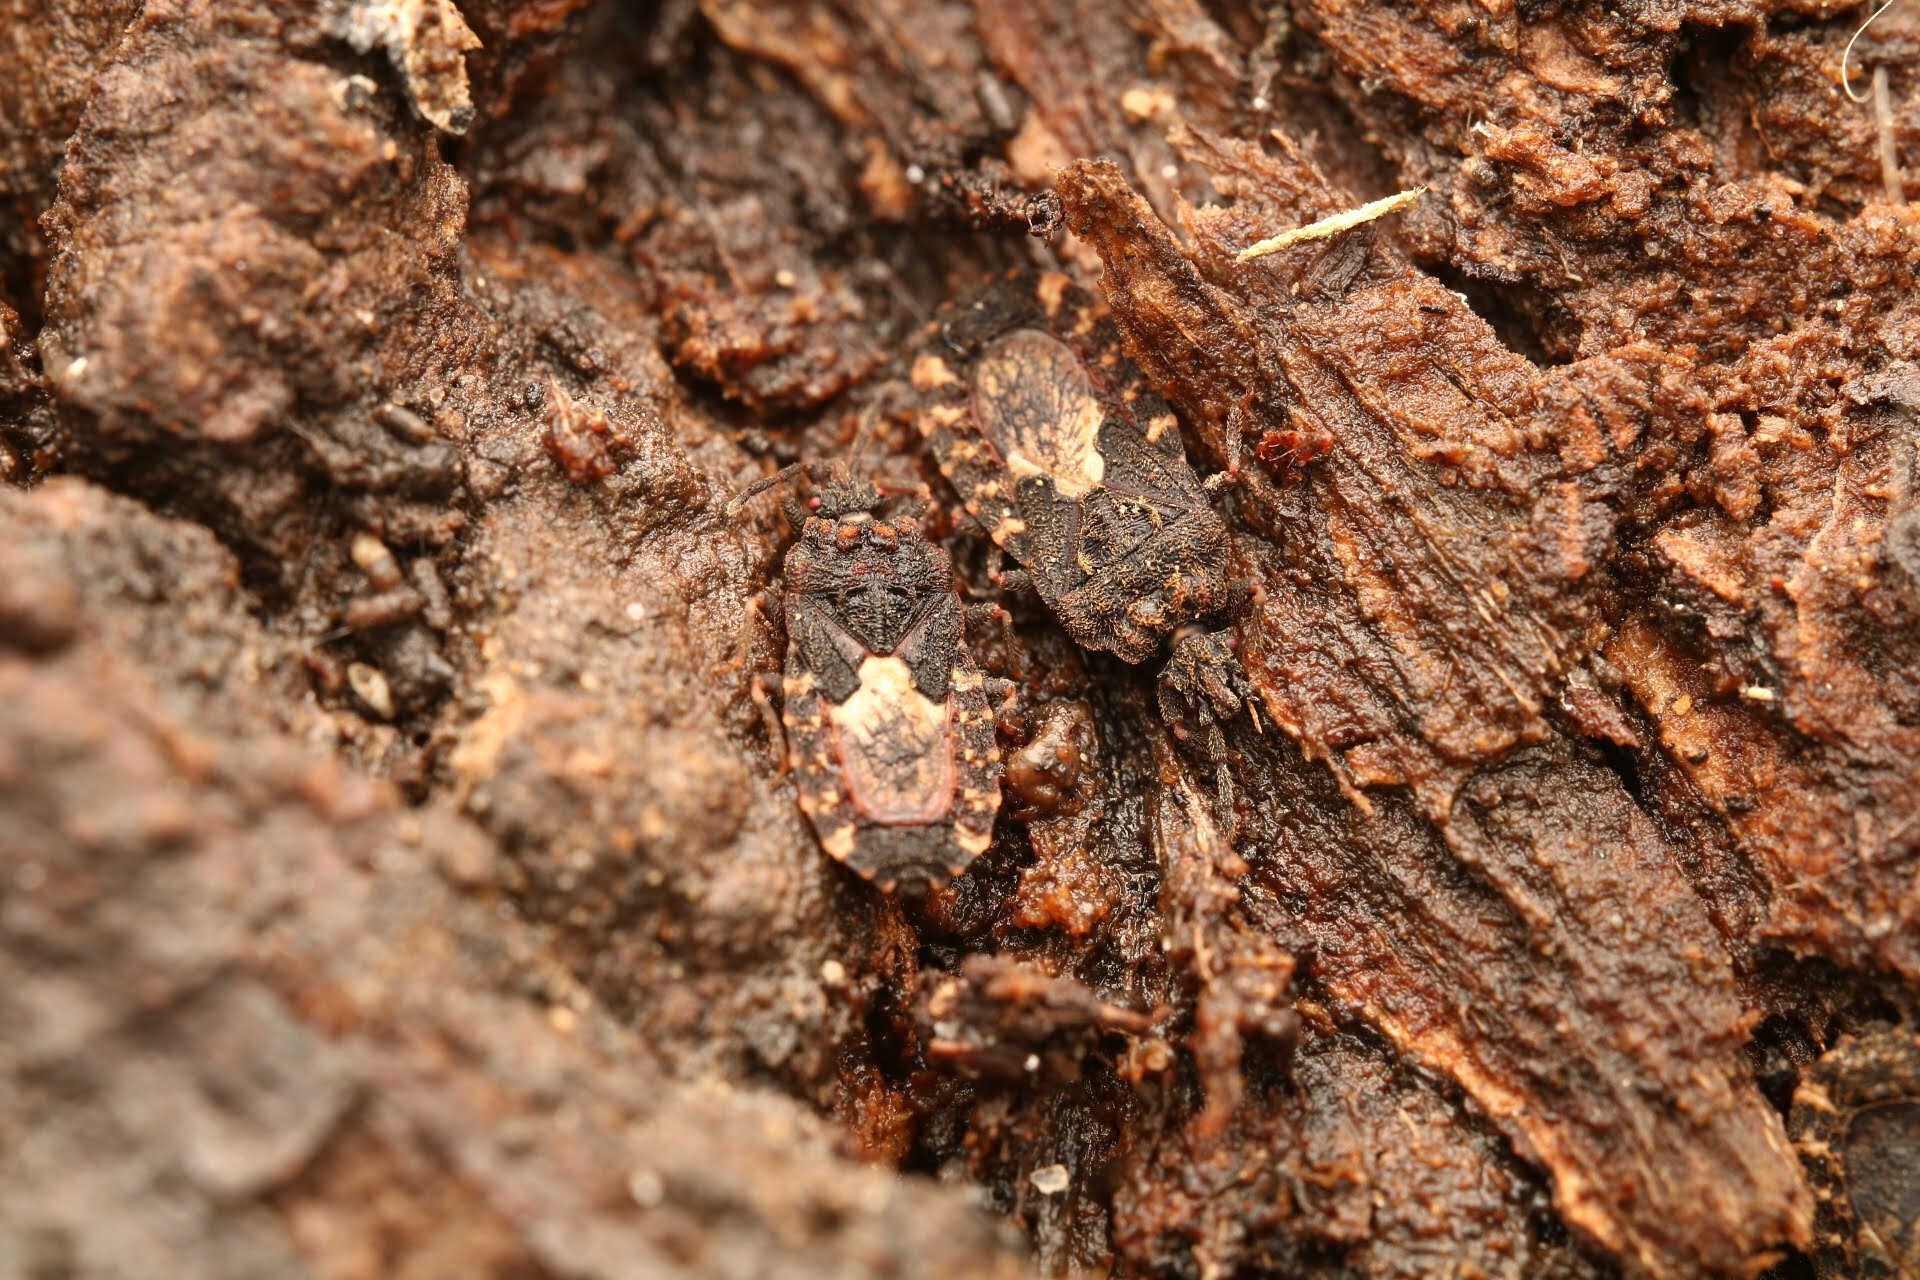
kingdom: Animalia
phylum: Arthropoda
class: Insecta
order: Hemiptera
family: Aradidae
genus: Mezira
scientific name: Mezira
